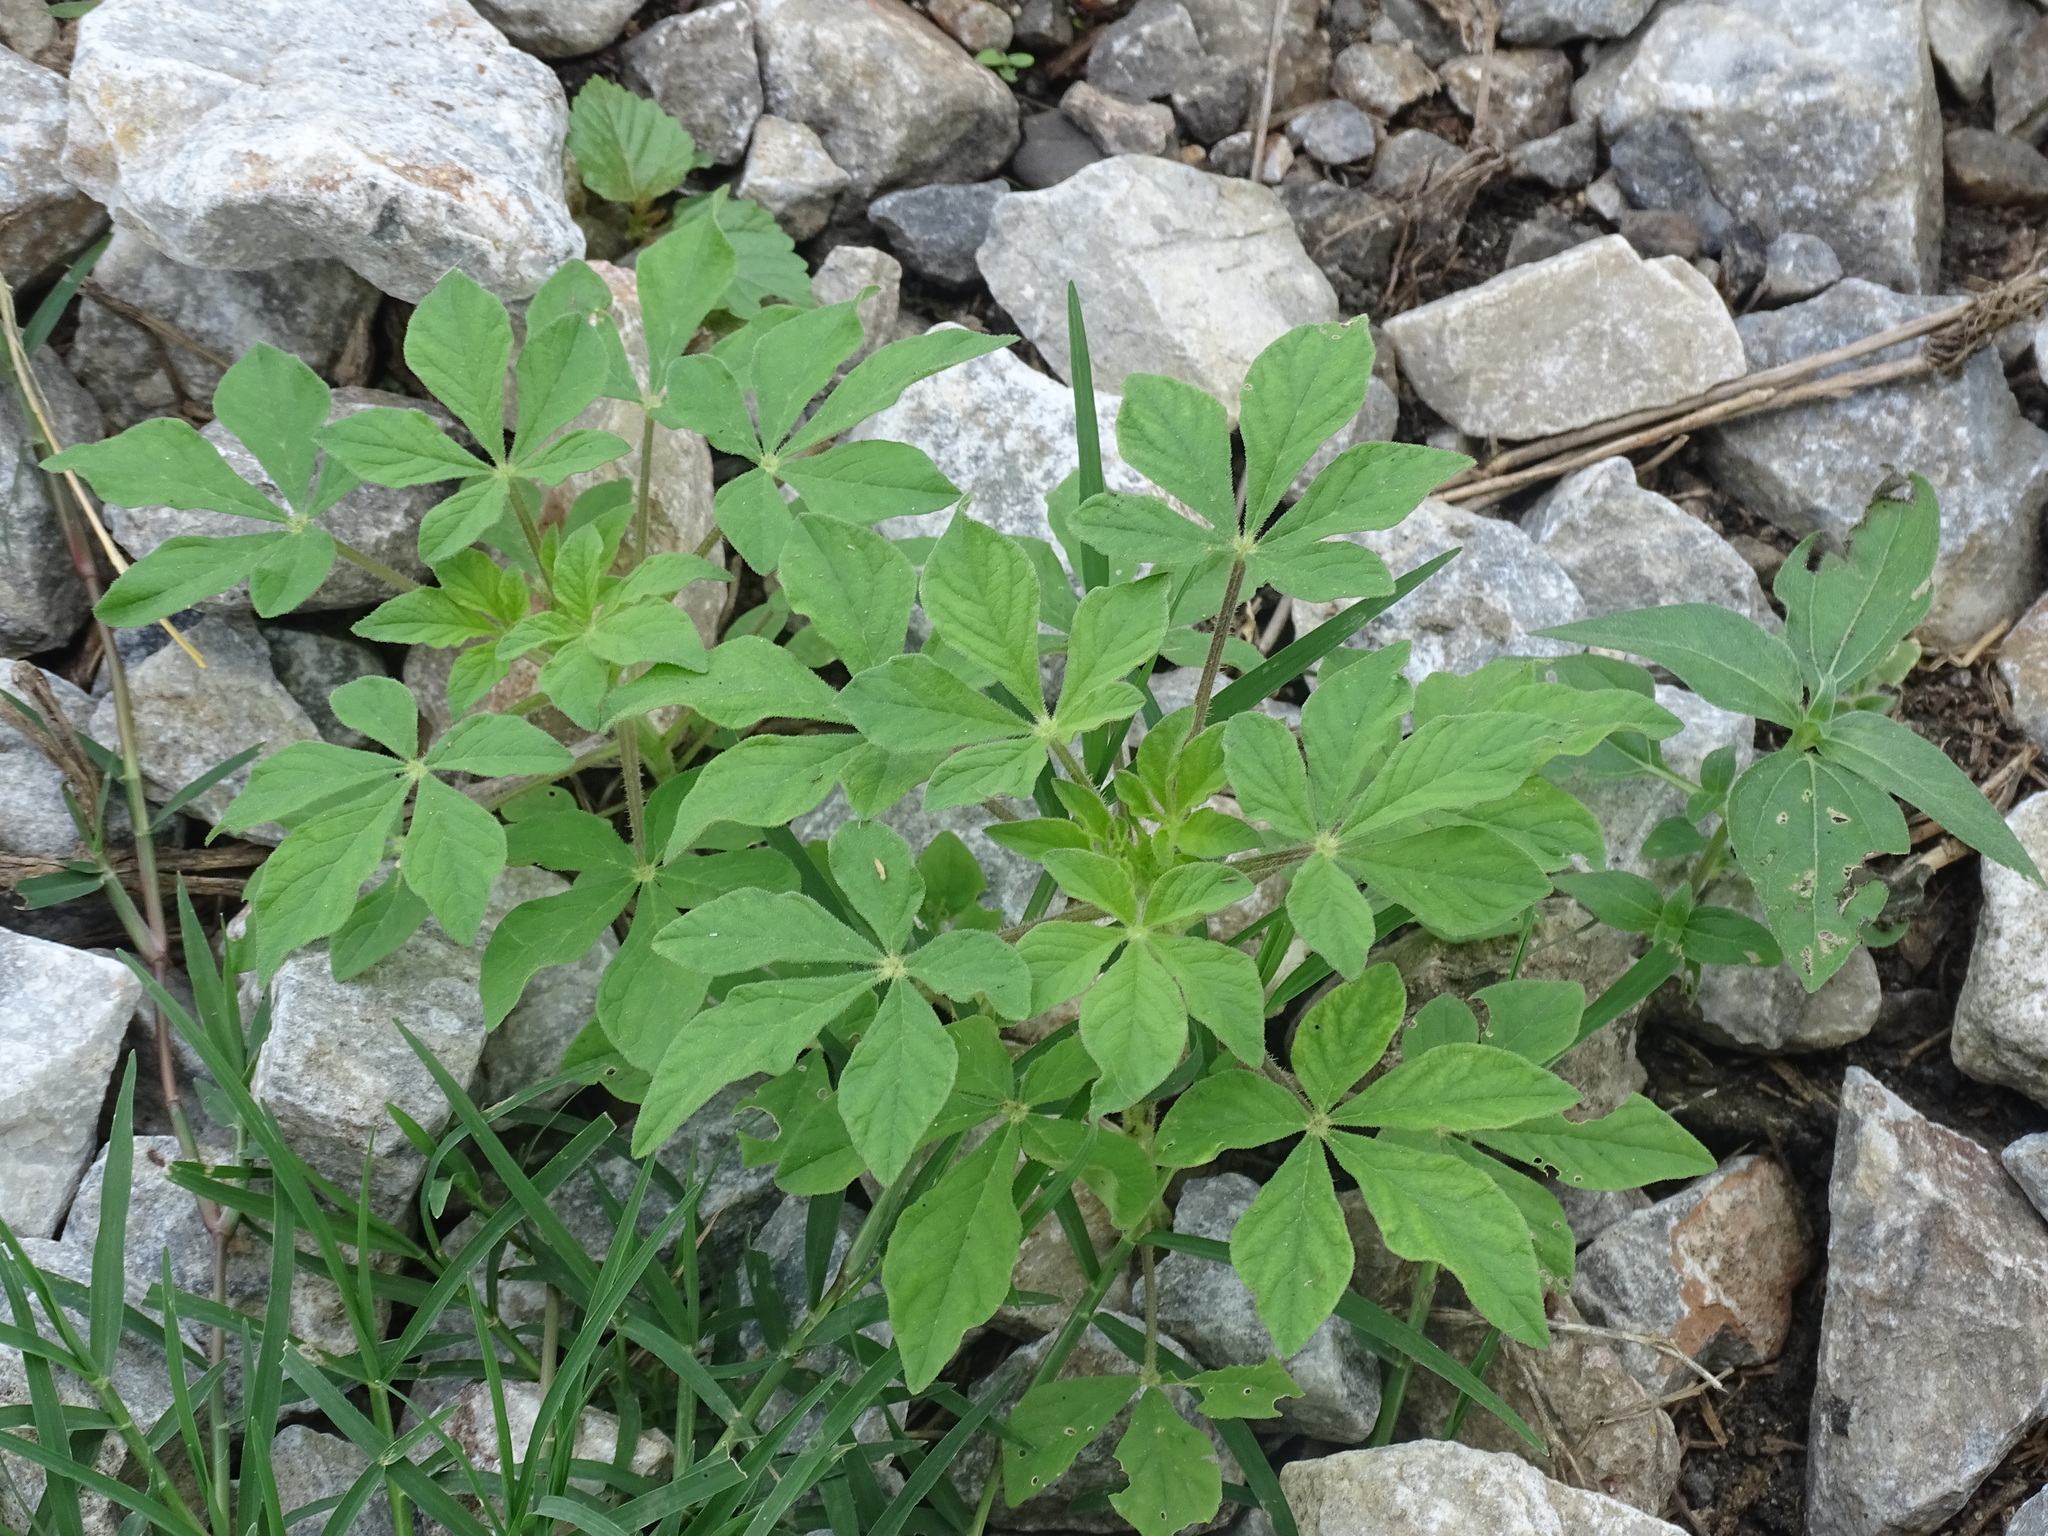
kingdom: Plantae
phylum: Tracheophyta
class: Magnoliopsida
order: Brassicales
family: Cleomaceae
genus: Arivela
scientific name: Arivela viscosa
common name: Asian spiderflower
